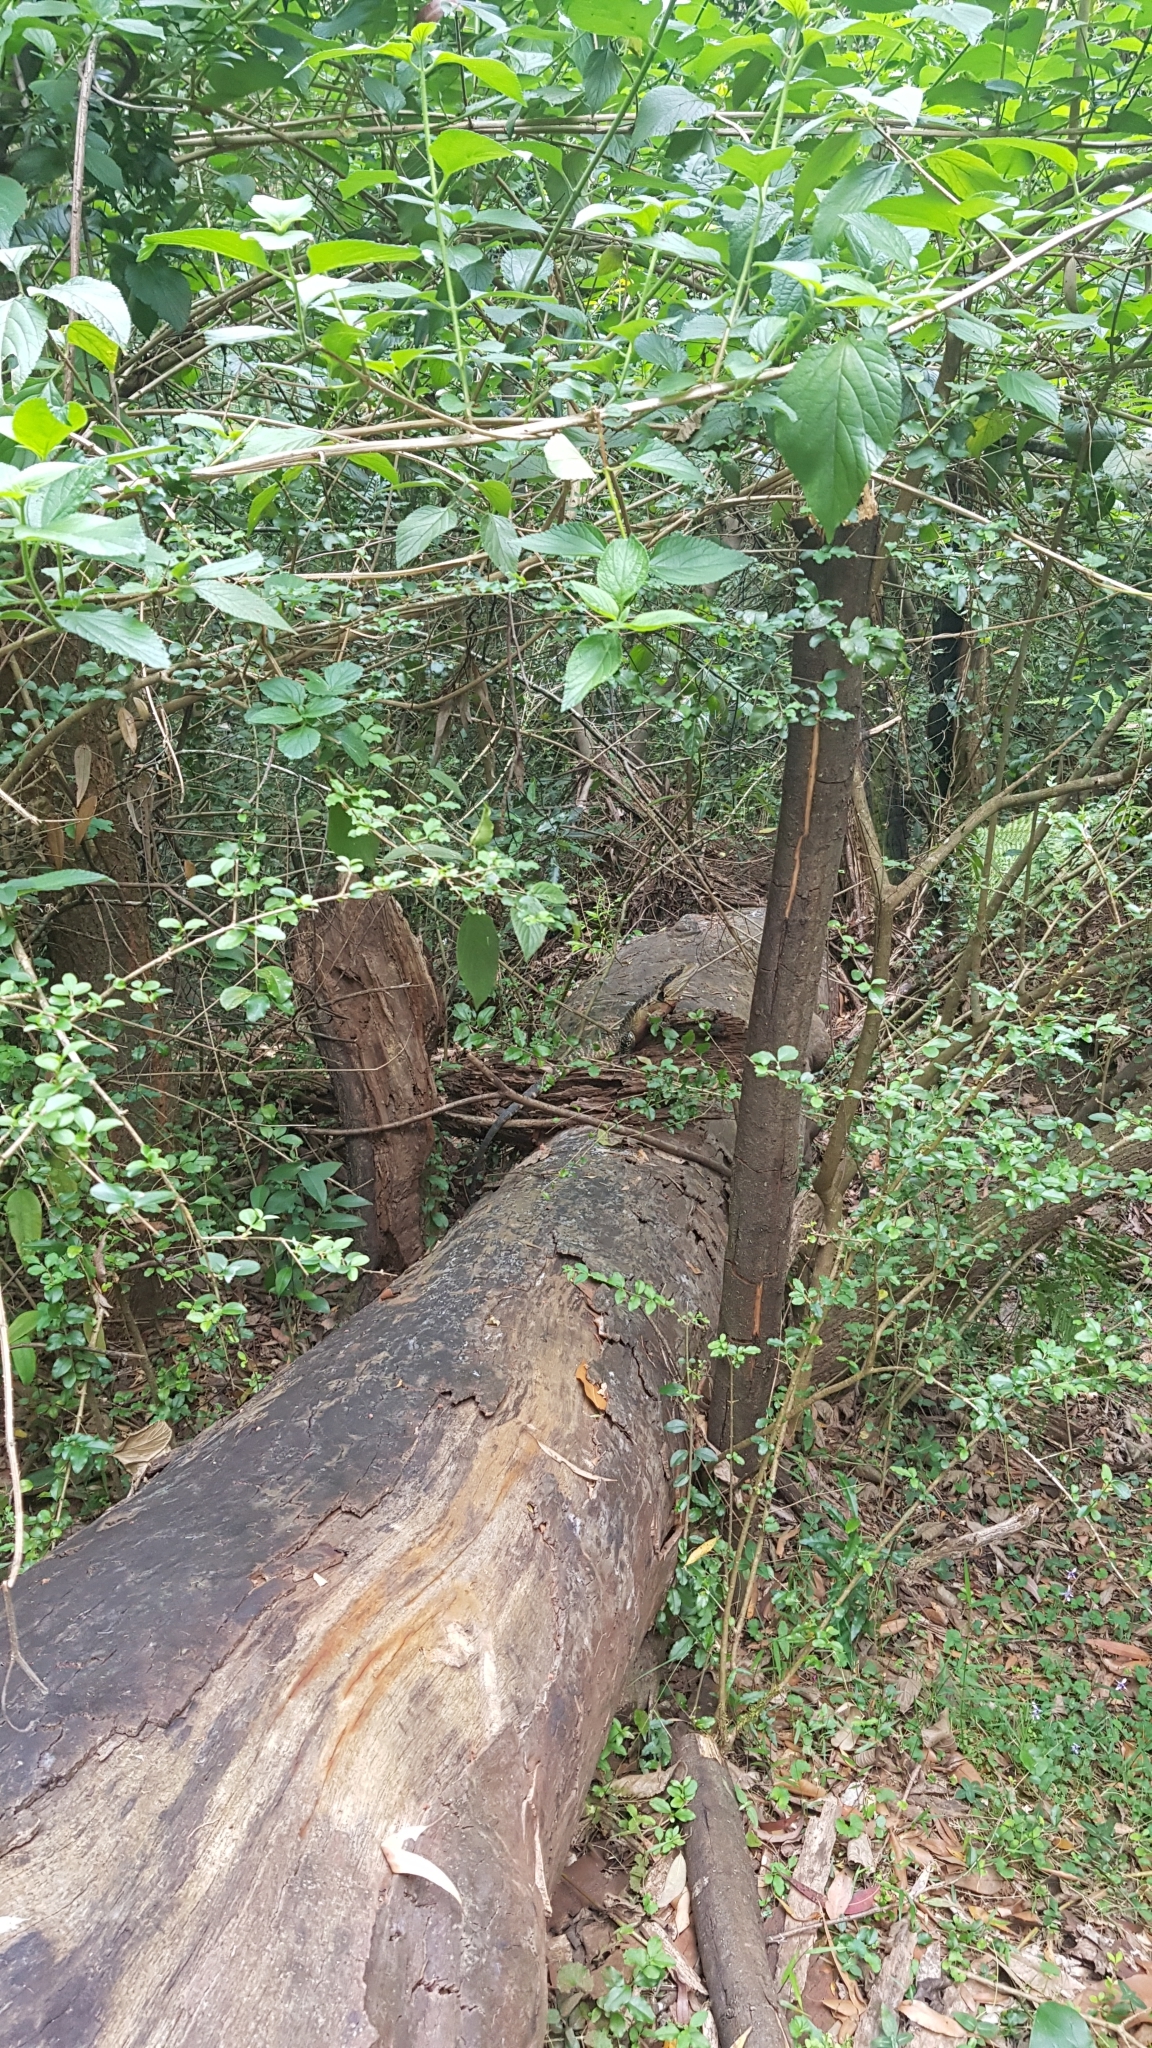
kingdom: Animalia
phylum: Chordata
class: Squamata
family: Agamidae
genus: Intellagama
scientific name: Intellagama lesueurii
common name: Eastern water dragon
